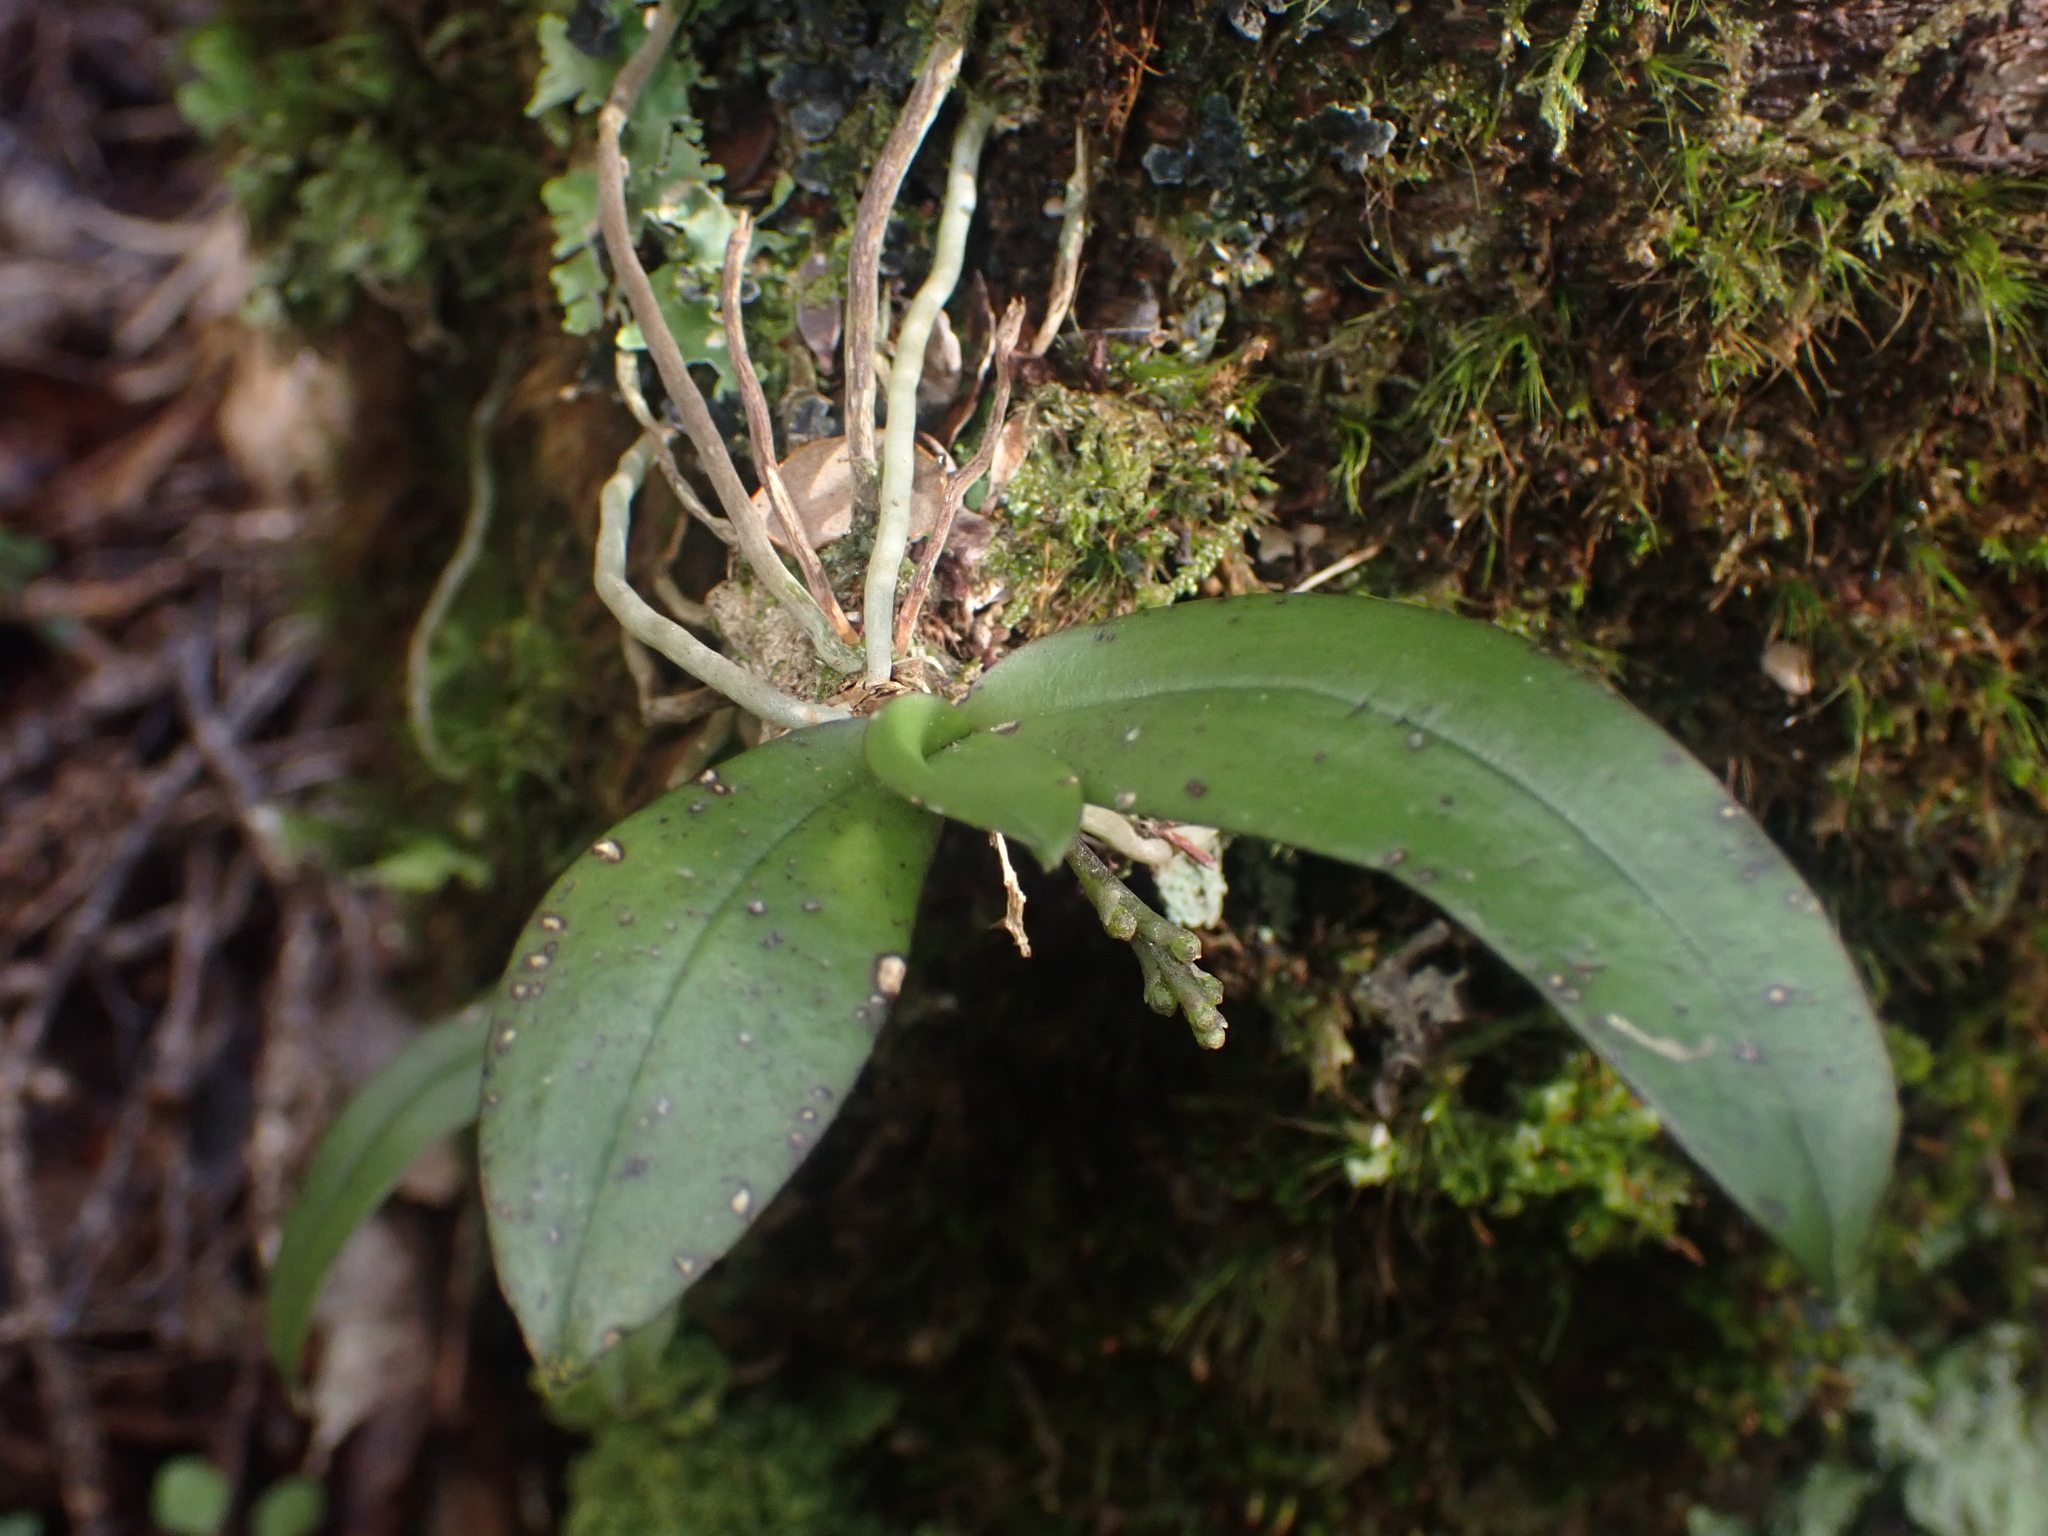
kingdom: Plantae
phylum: Tracheophyta
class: Liliopsida
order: Asparagales
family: Orchidaceae
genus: Drymoanthus
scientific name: Drymoanthus adversus
